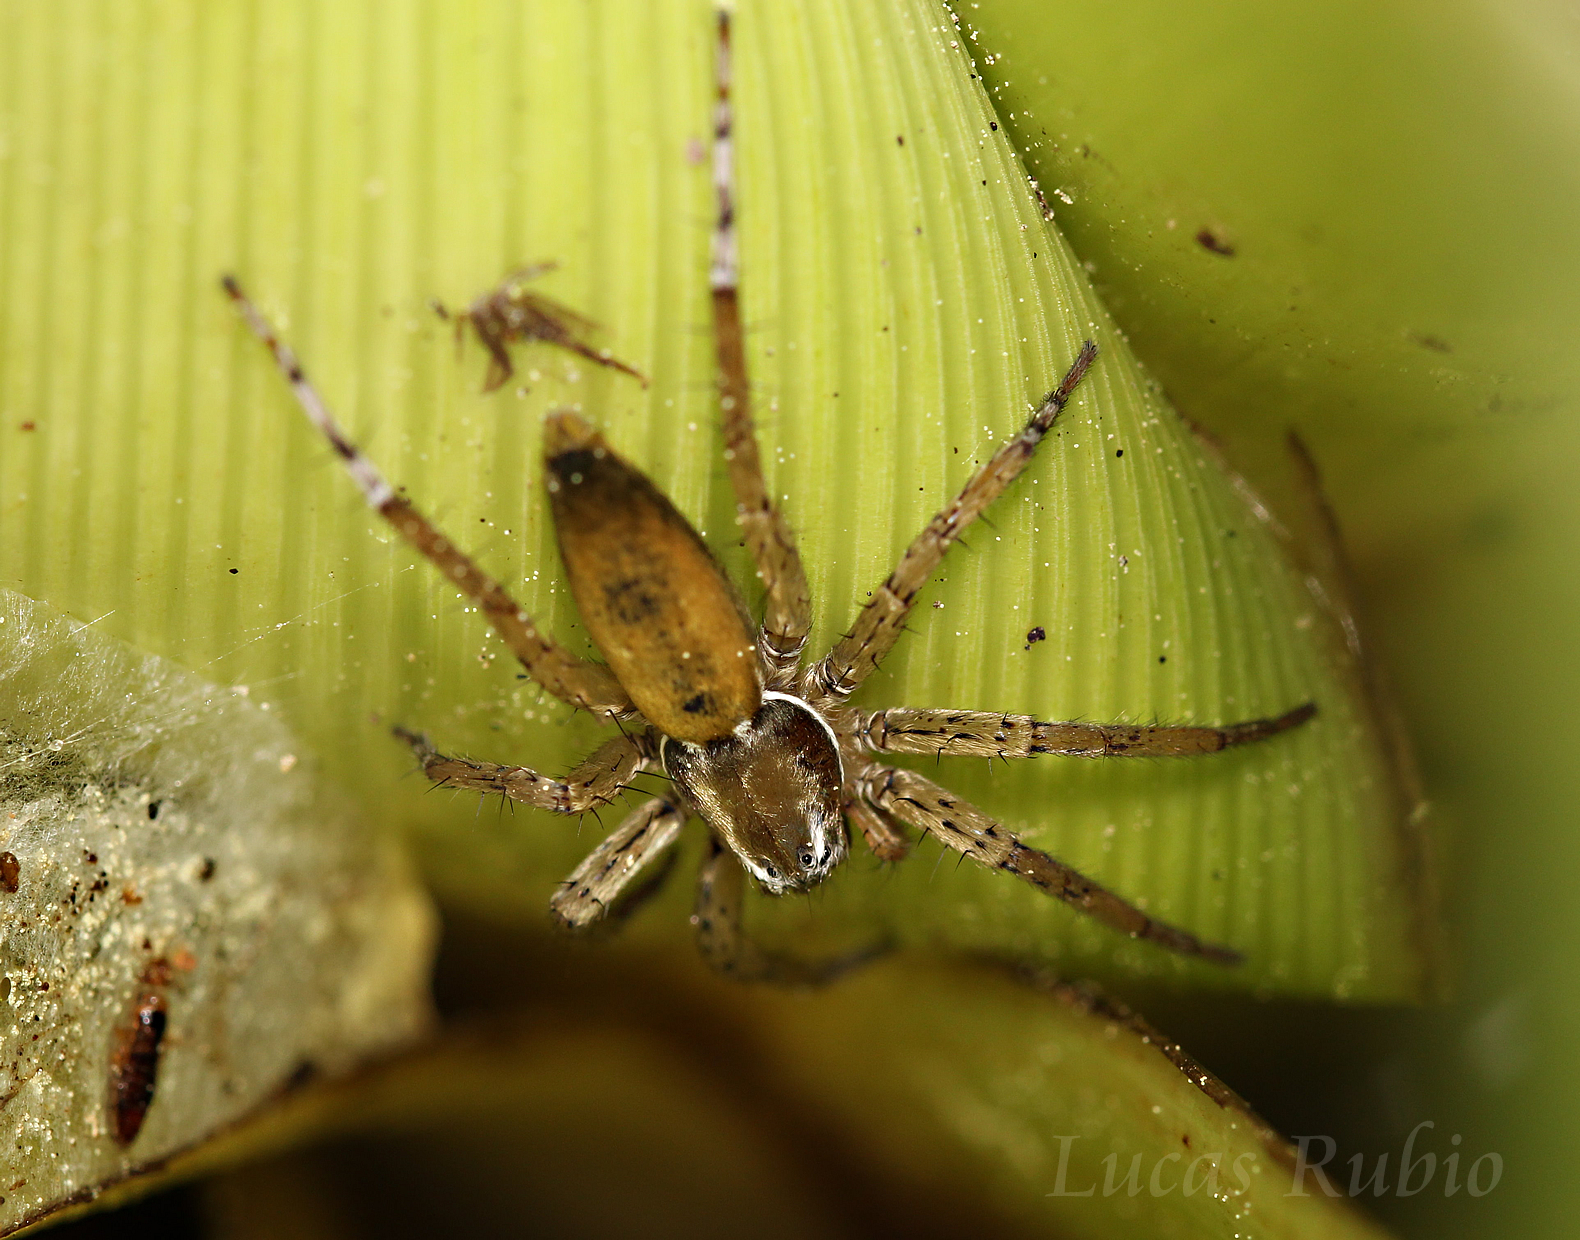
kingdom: Animalia
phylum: Arthropoda
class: Arachnida
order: Araneae
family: Anyphaenidae
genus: Arachosia
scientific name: Arachosia proseni
